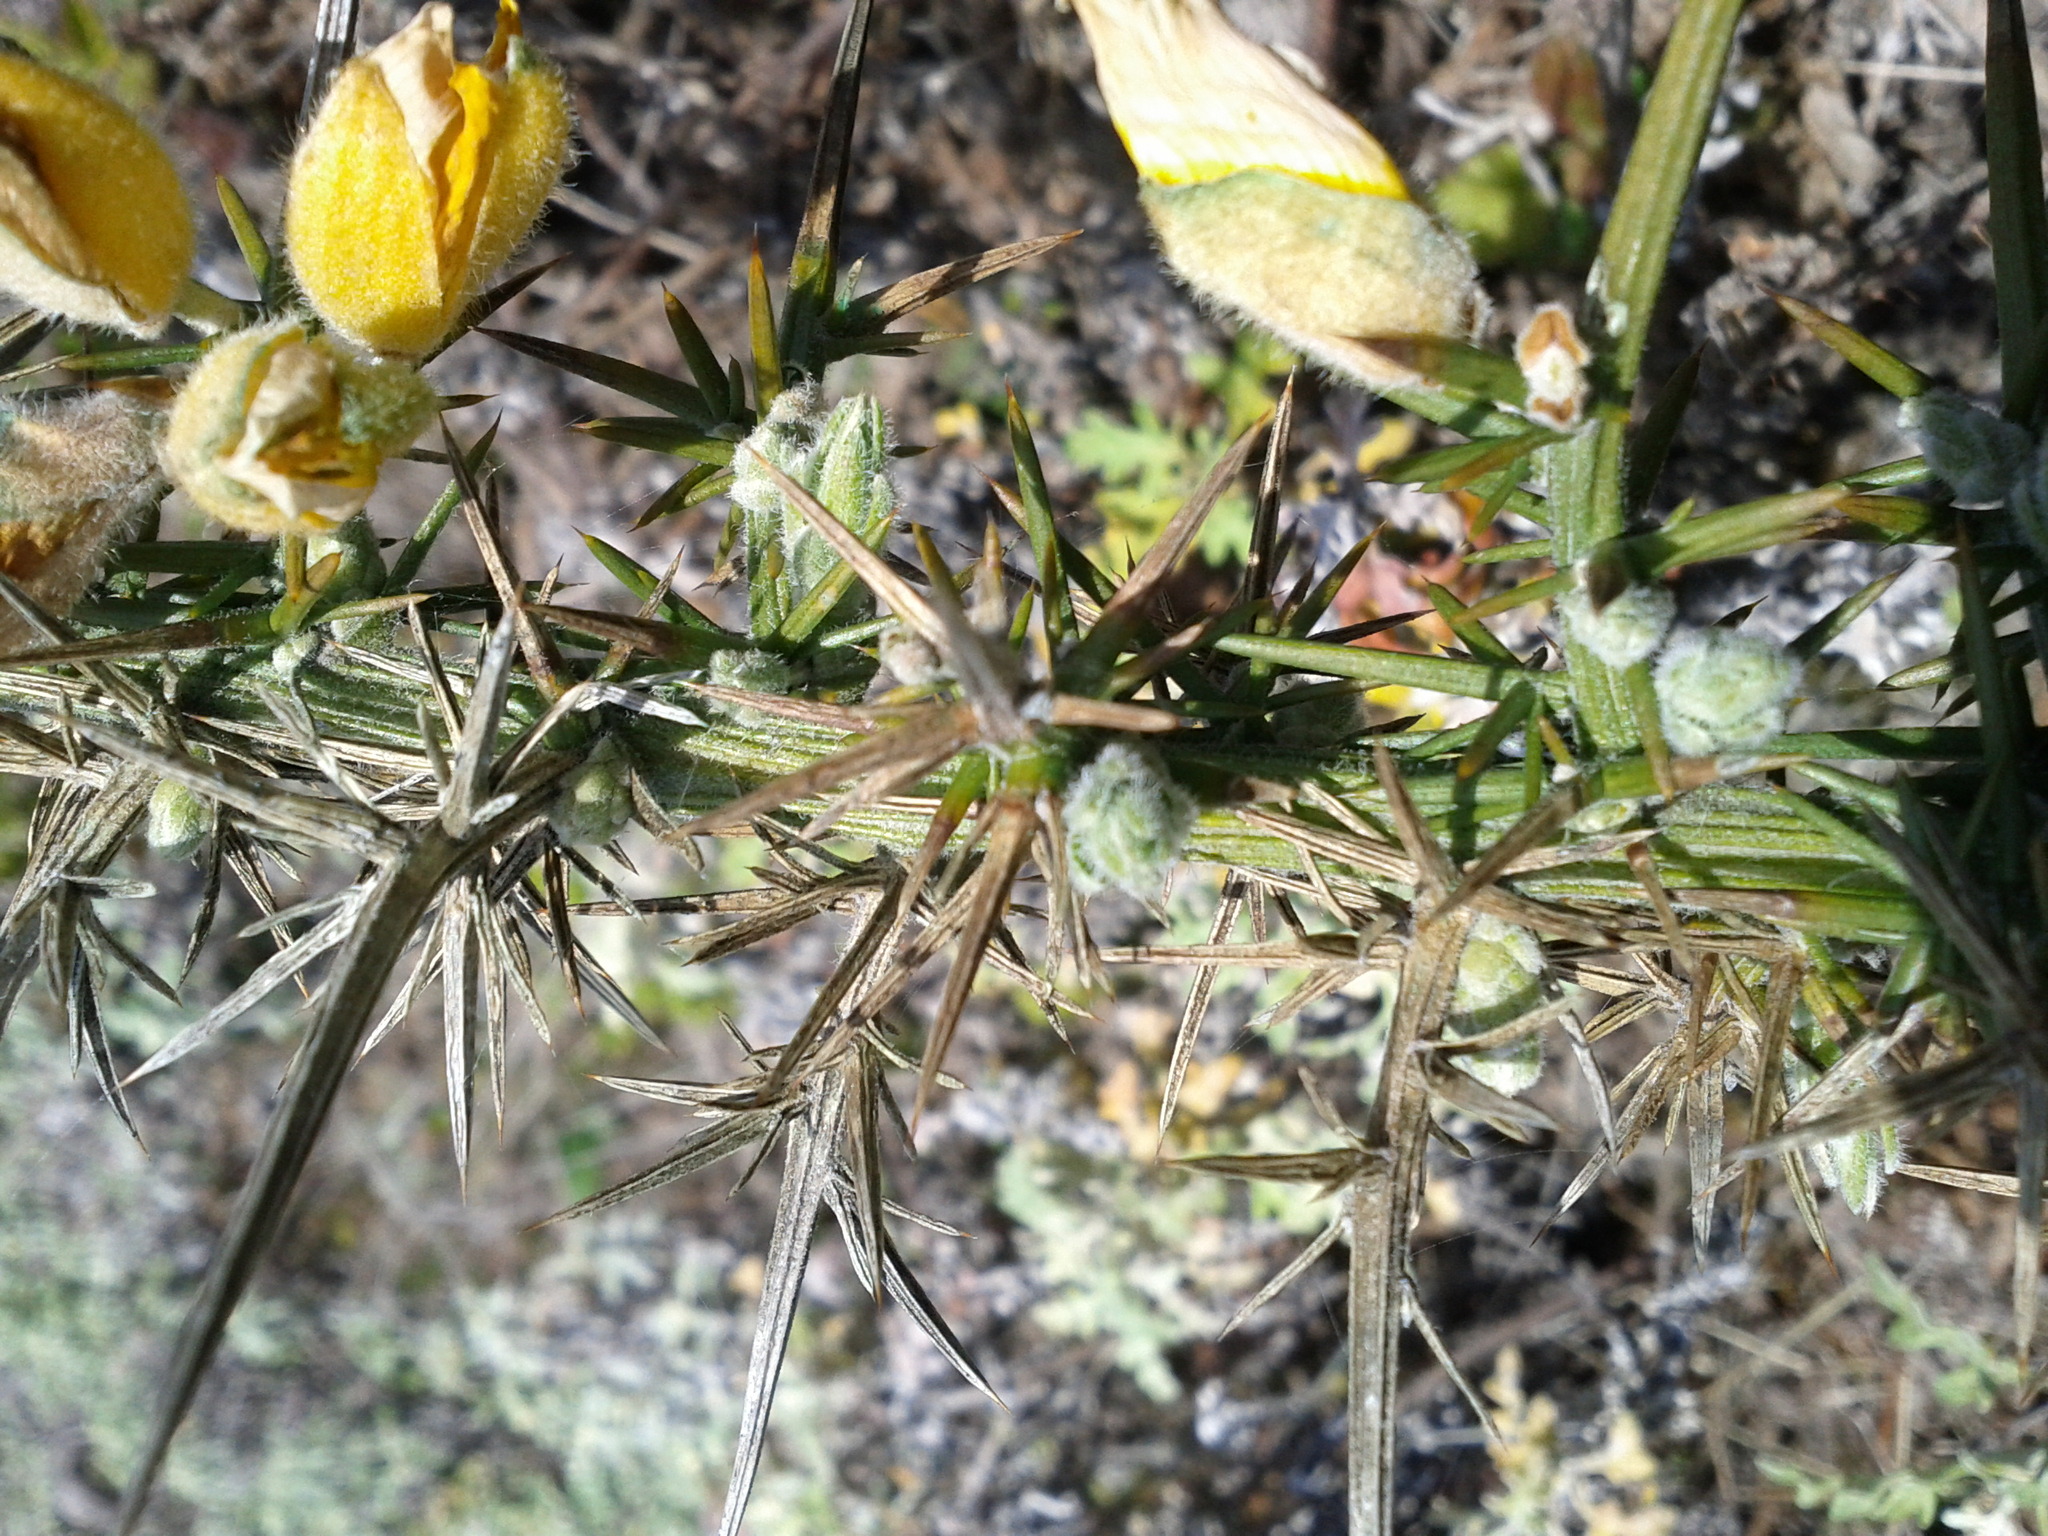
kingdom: Plantae
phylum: Tracheophyta
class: Magnoliopsida
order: Fabales
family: Fabaceae
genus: Ulex
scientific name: Ulex europaeus
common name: Common gorse
